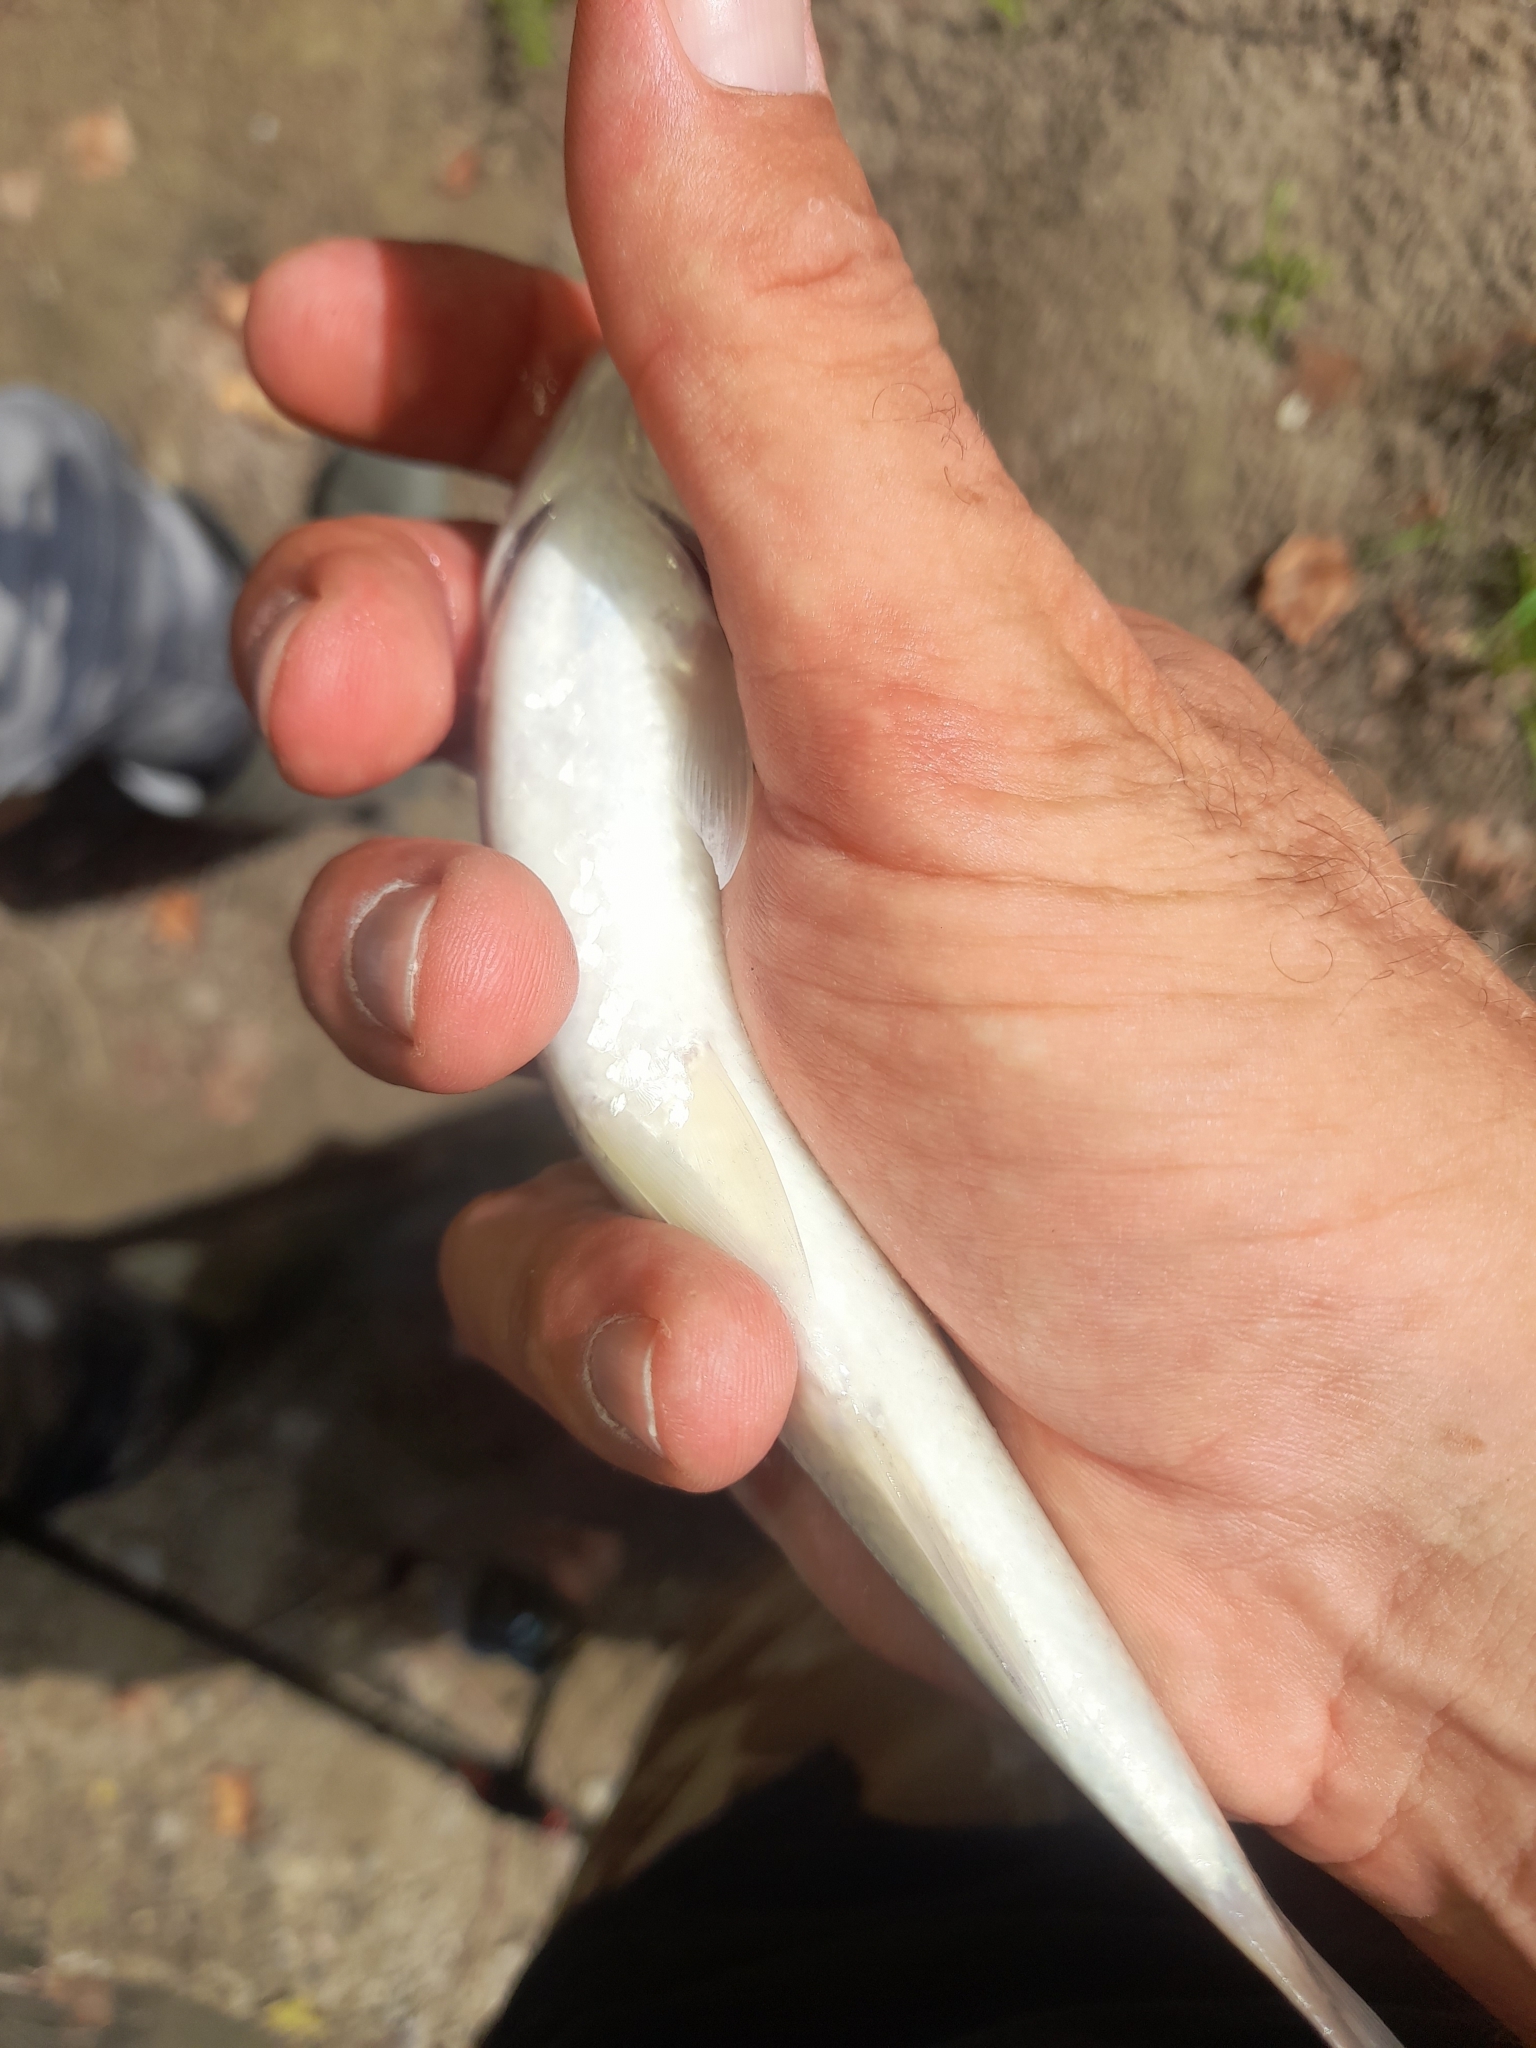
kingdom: Animalia
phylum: Chordata
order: Cypriniformes
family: Cyprinidae
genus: Squalius
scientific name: Squalius squalus
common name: Italian chub
